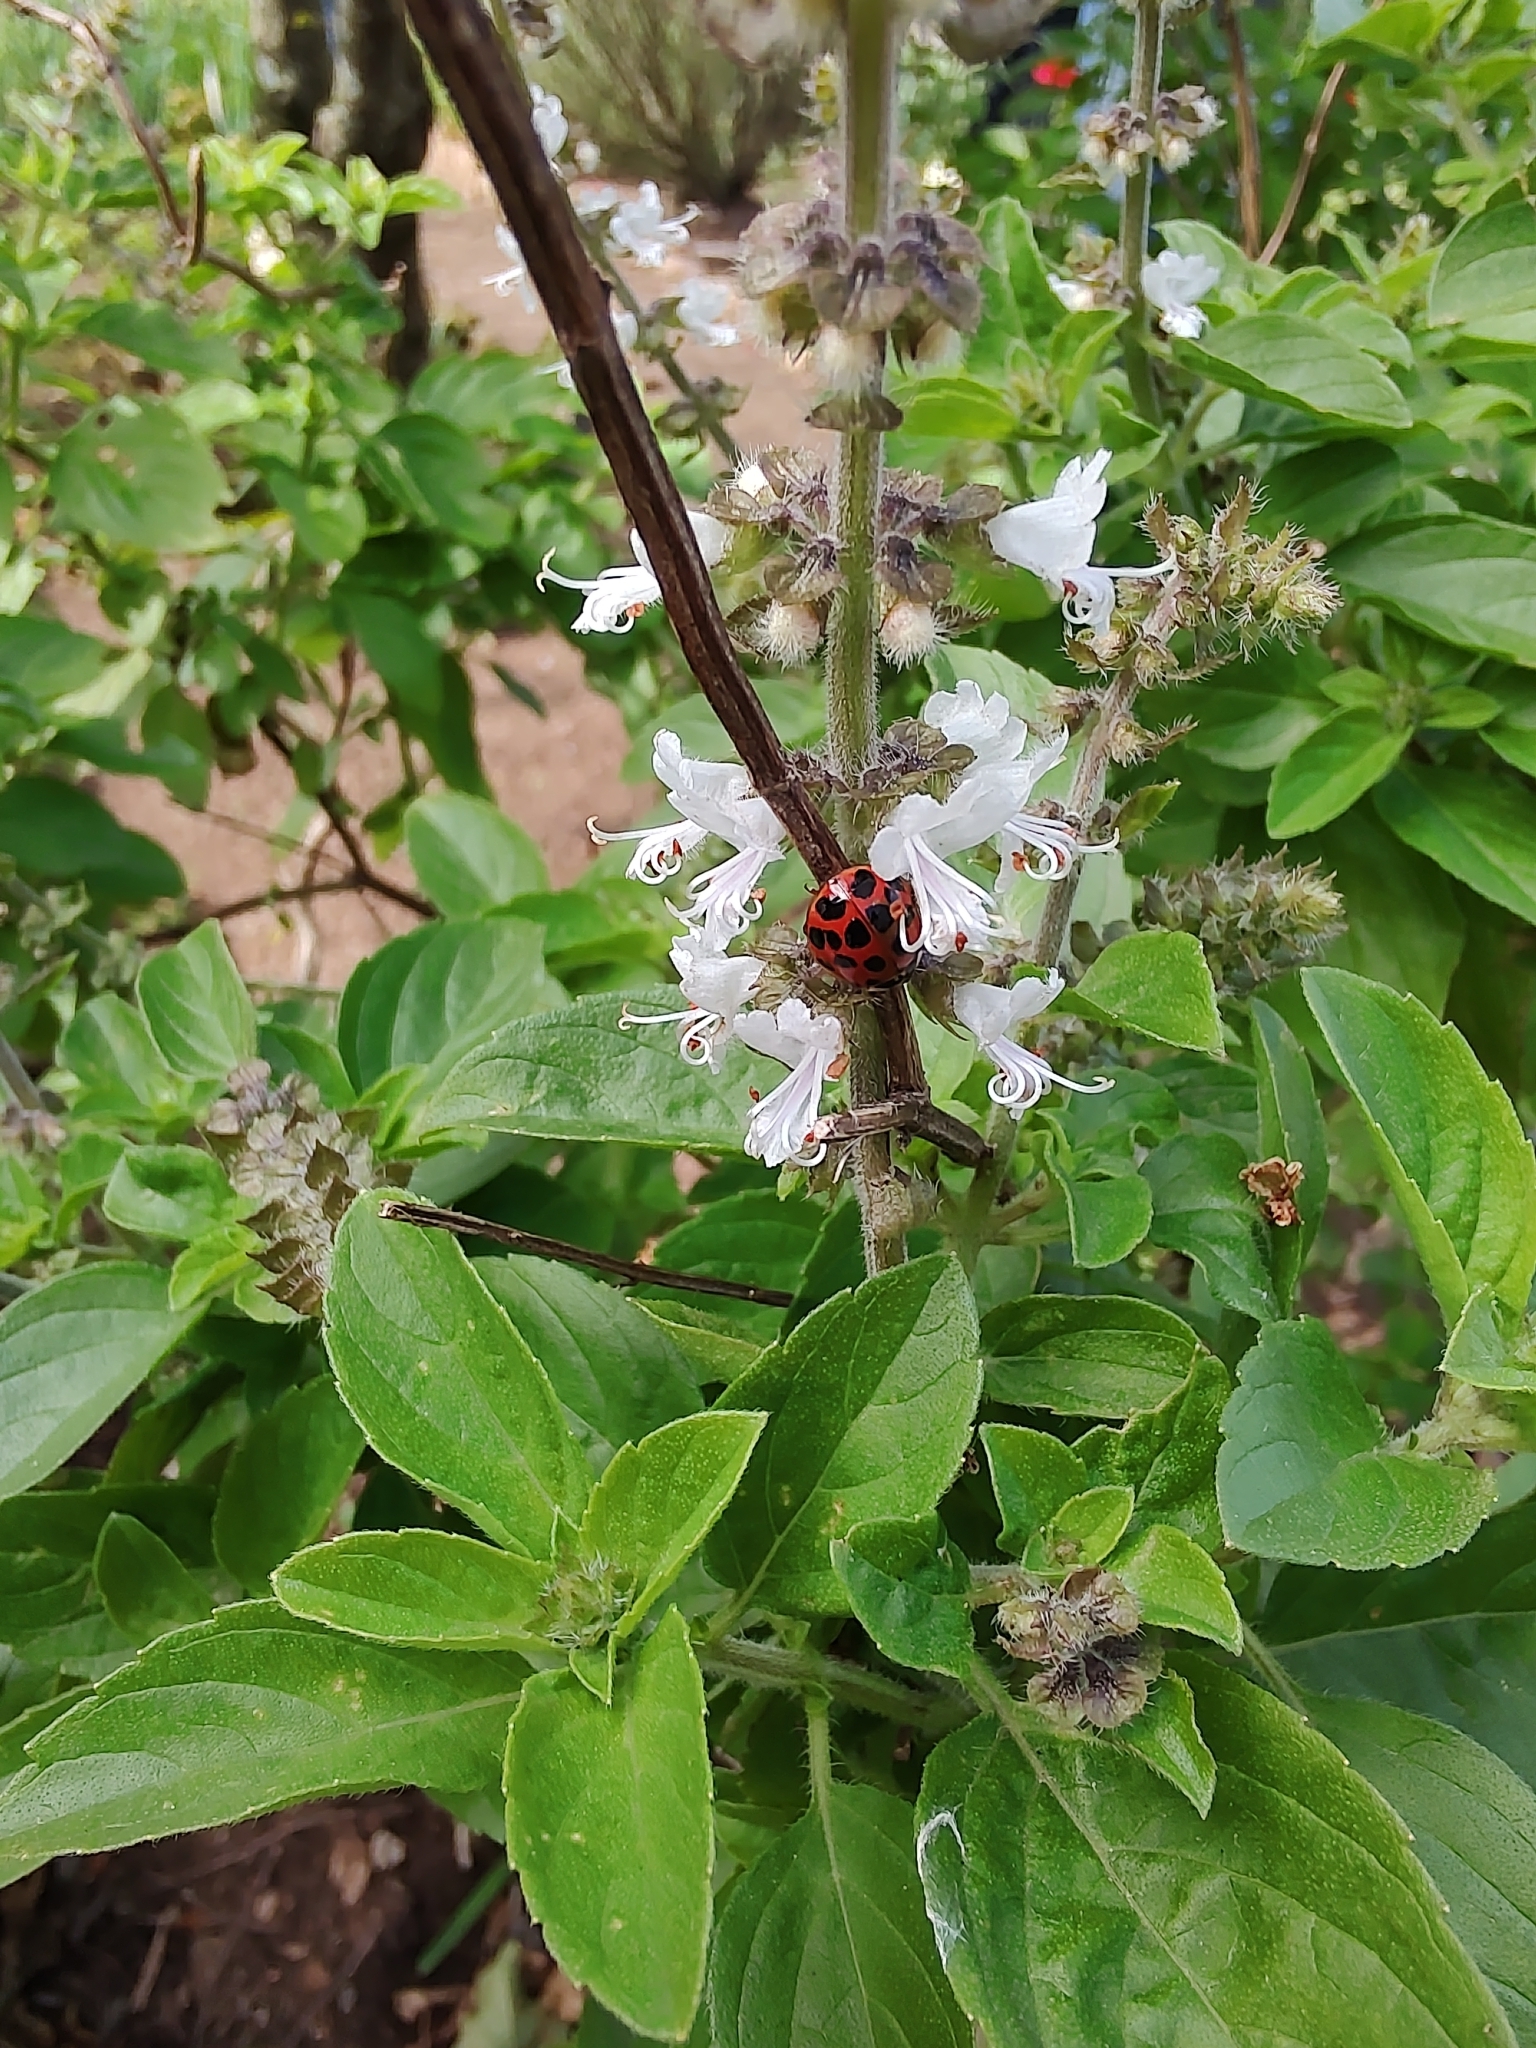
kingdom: Animalia
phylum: Arthropoda
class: Insecta
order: Coleoptera
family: Coccinellidae
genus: Harmonia
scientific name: Harmonia axyridis
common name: Harlequin ladybird
